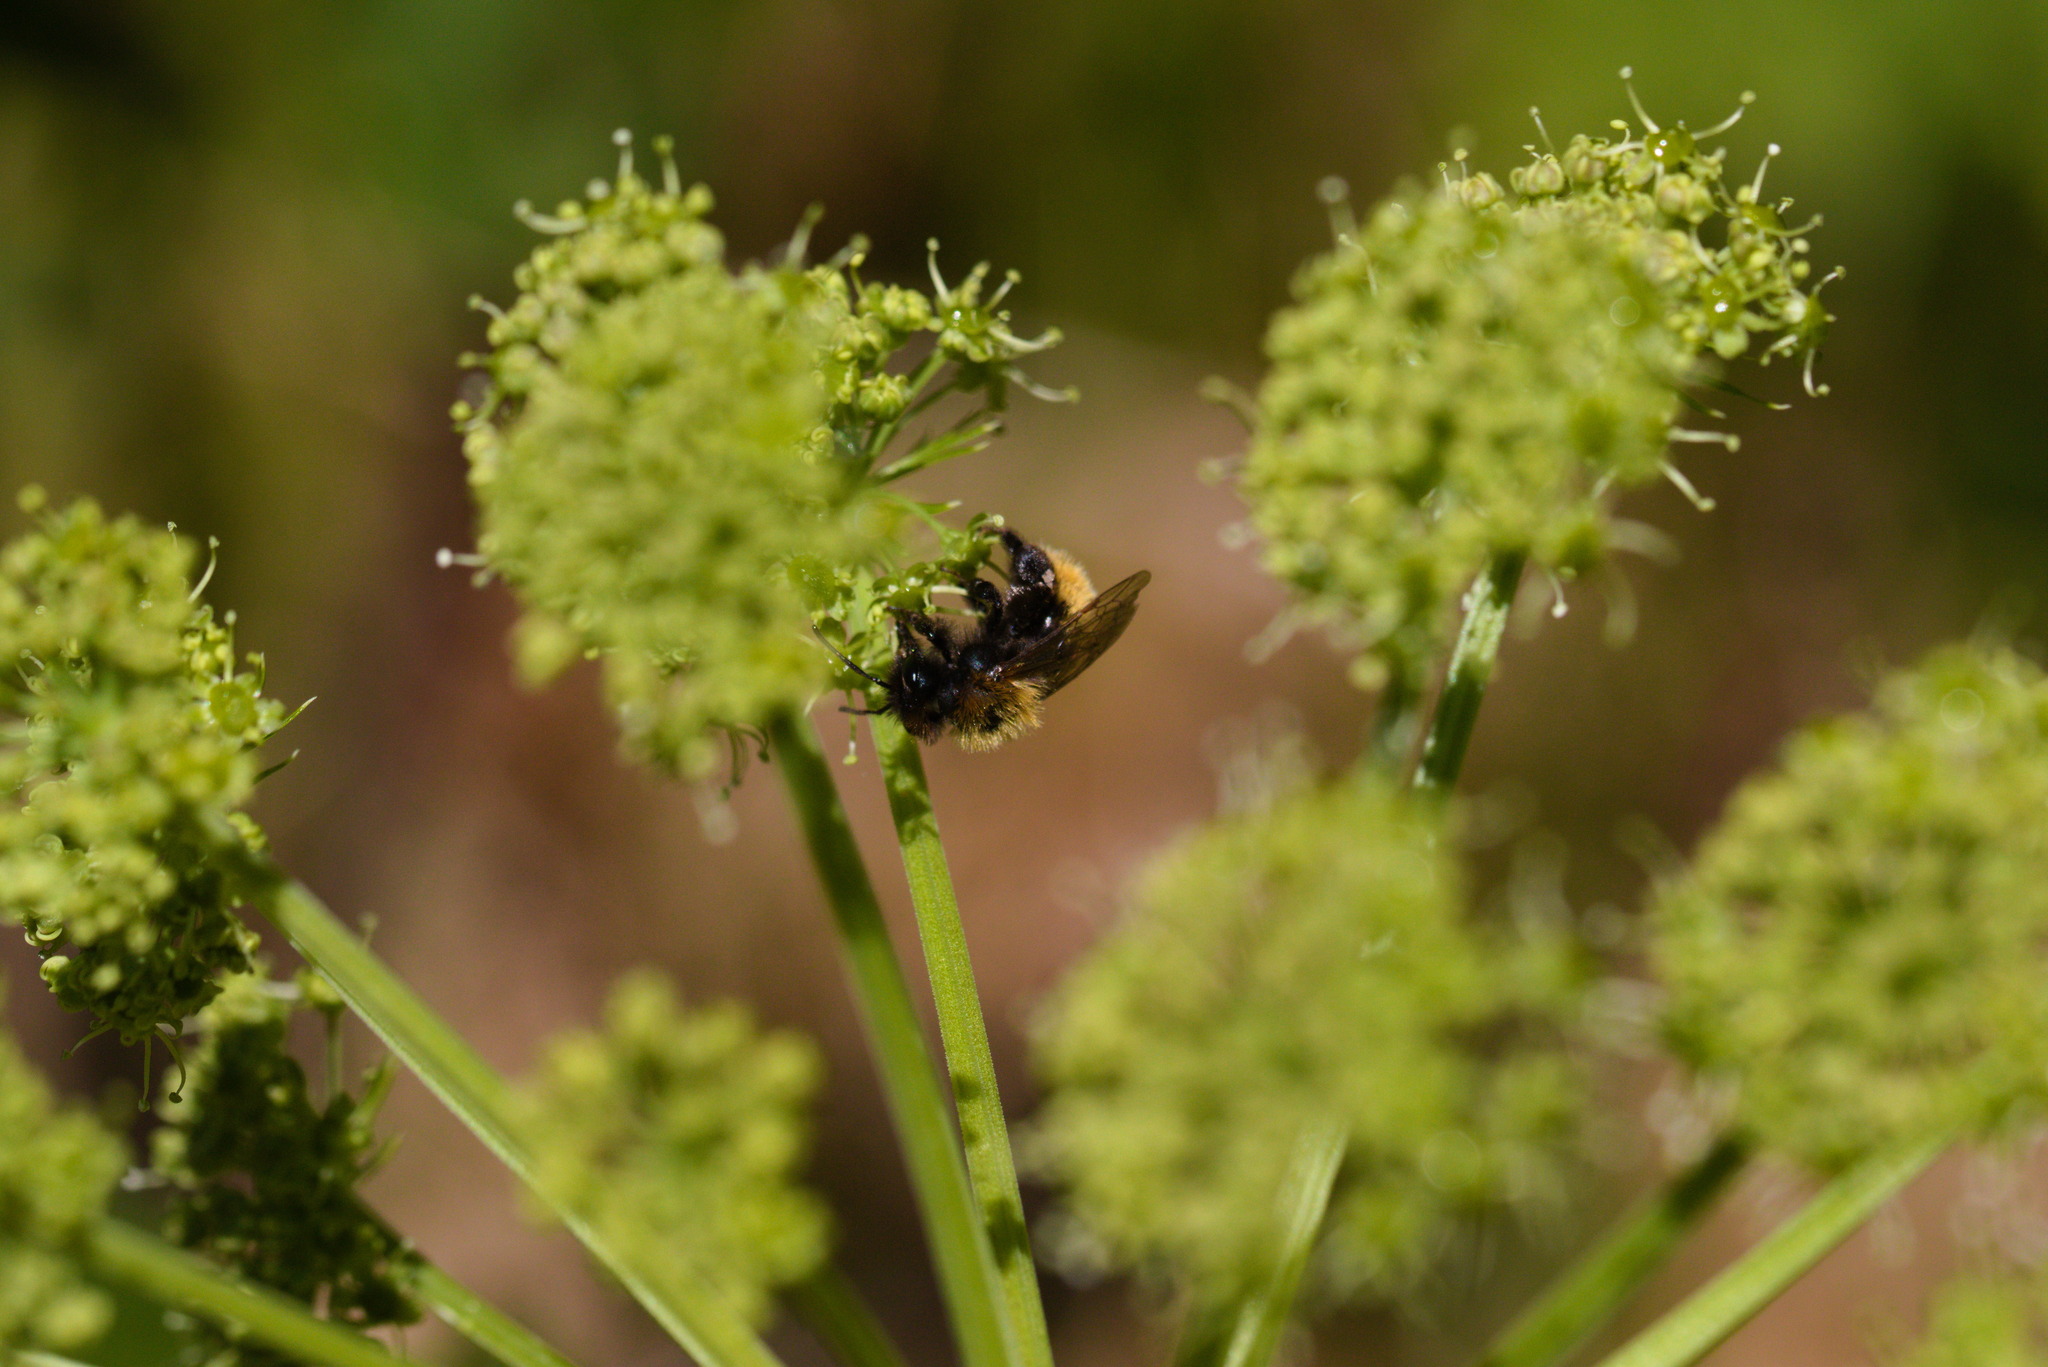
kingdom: Animalia
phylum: Arthropoda
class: Insecta
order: Hymenoptera
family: Andrenidae
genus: Andrena
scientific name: Andrena fulva
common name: Tawny mining bee
